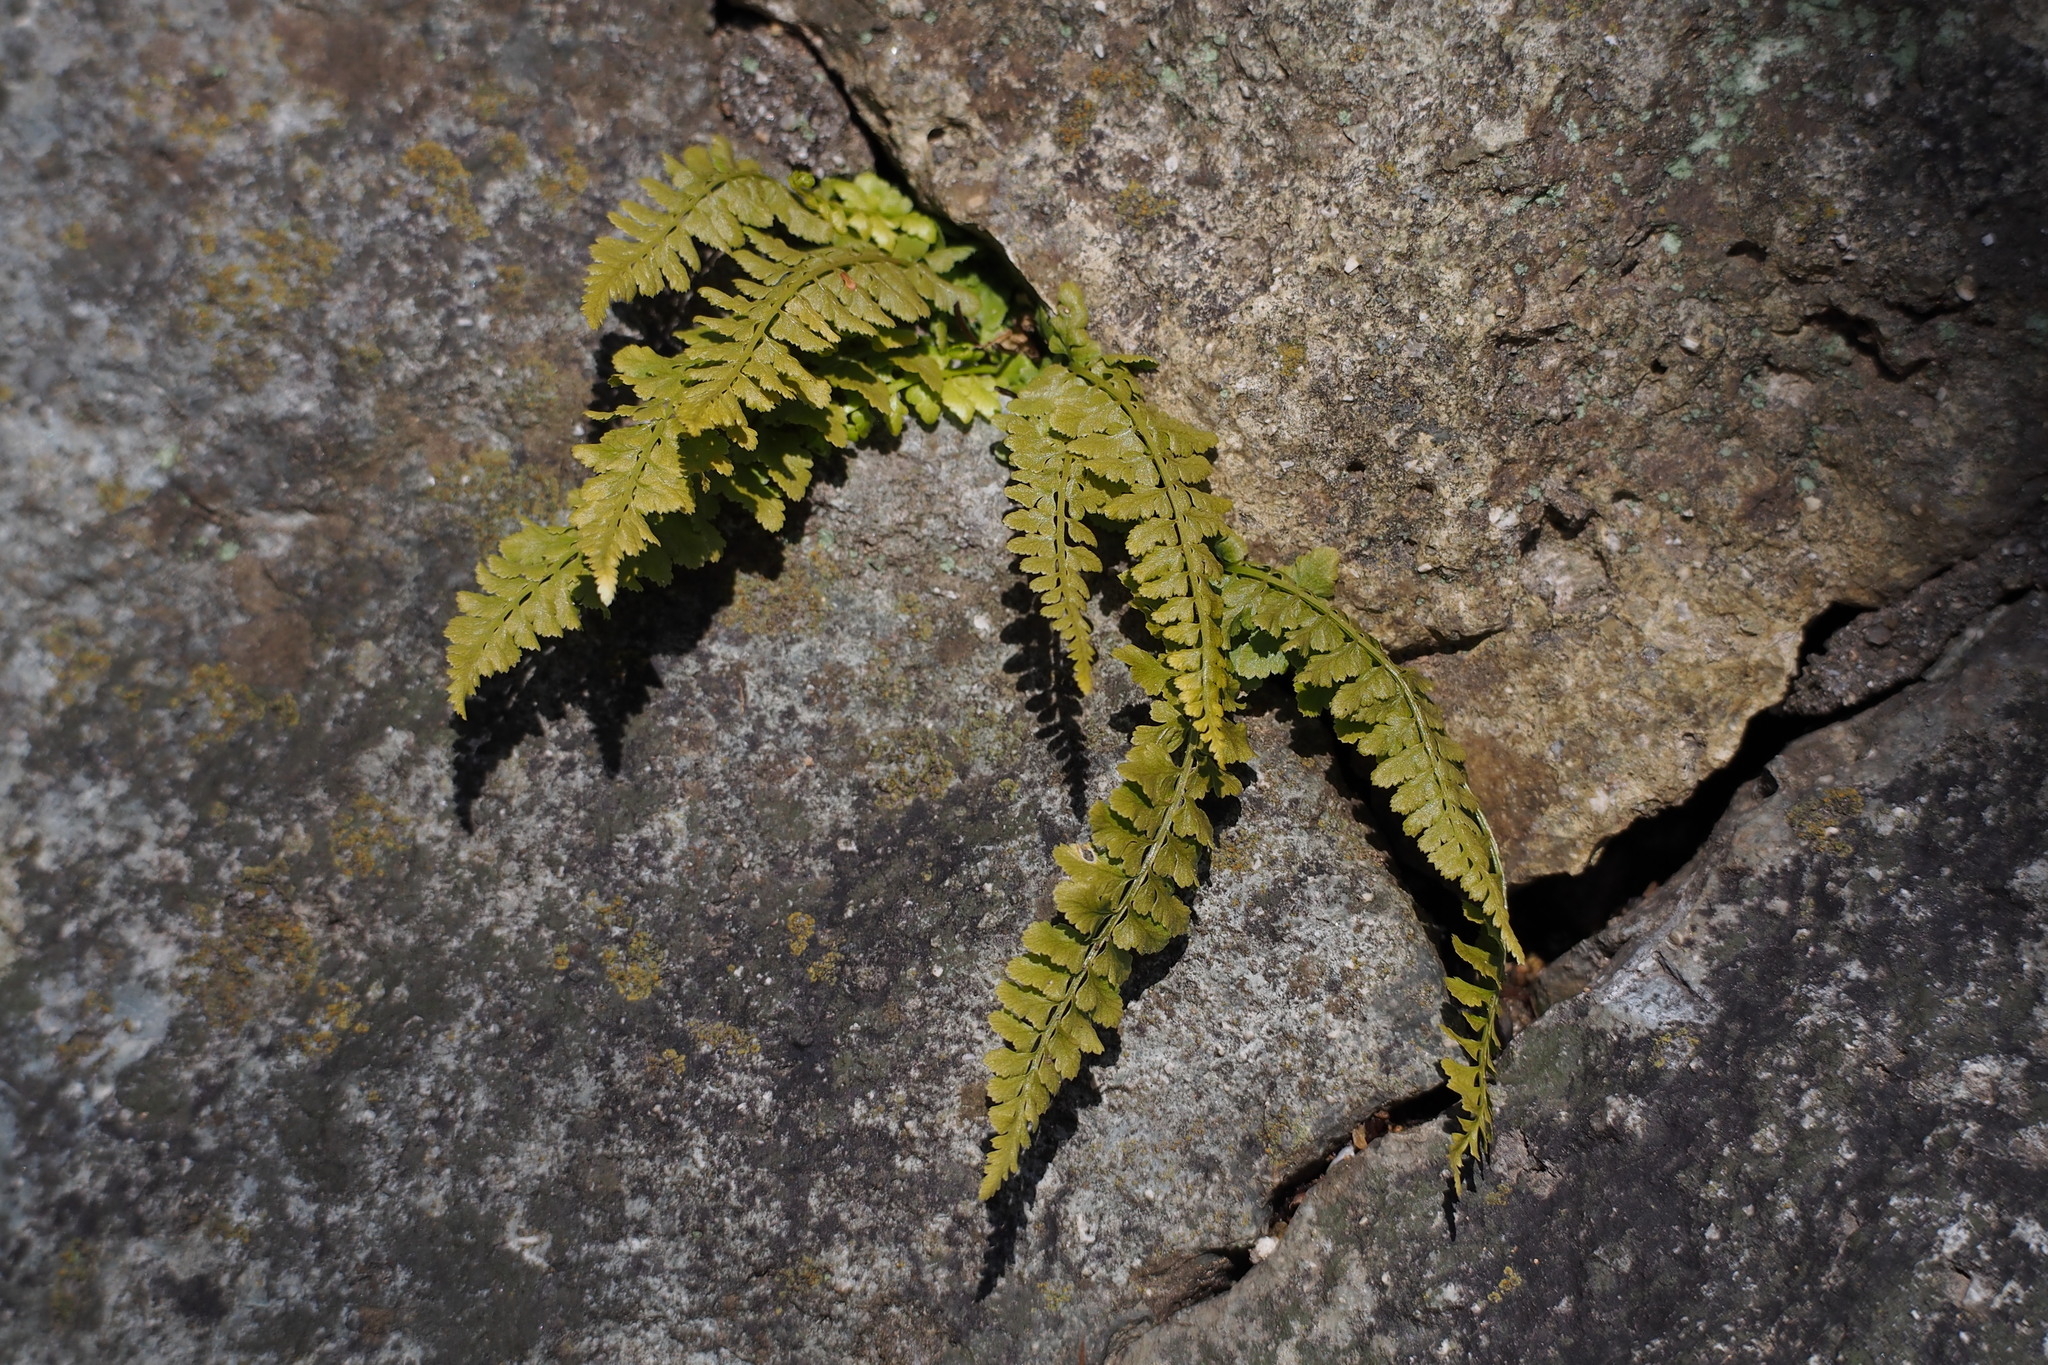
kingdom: Plantae
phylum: Tracheophyta
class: Polypodiopsida
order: Polypodiales
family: Aspleniaceae
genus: Asplenium
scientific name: Asplenium incisum
